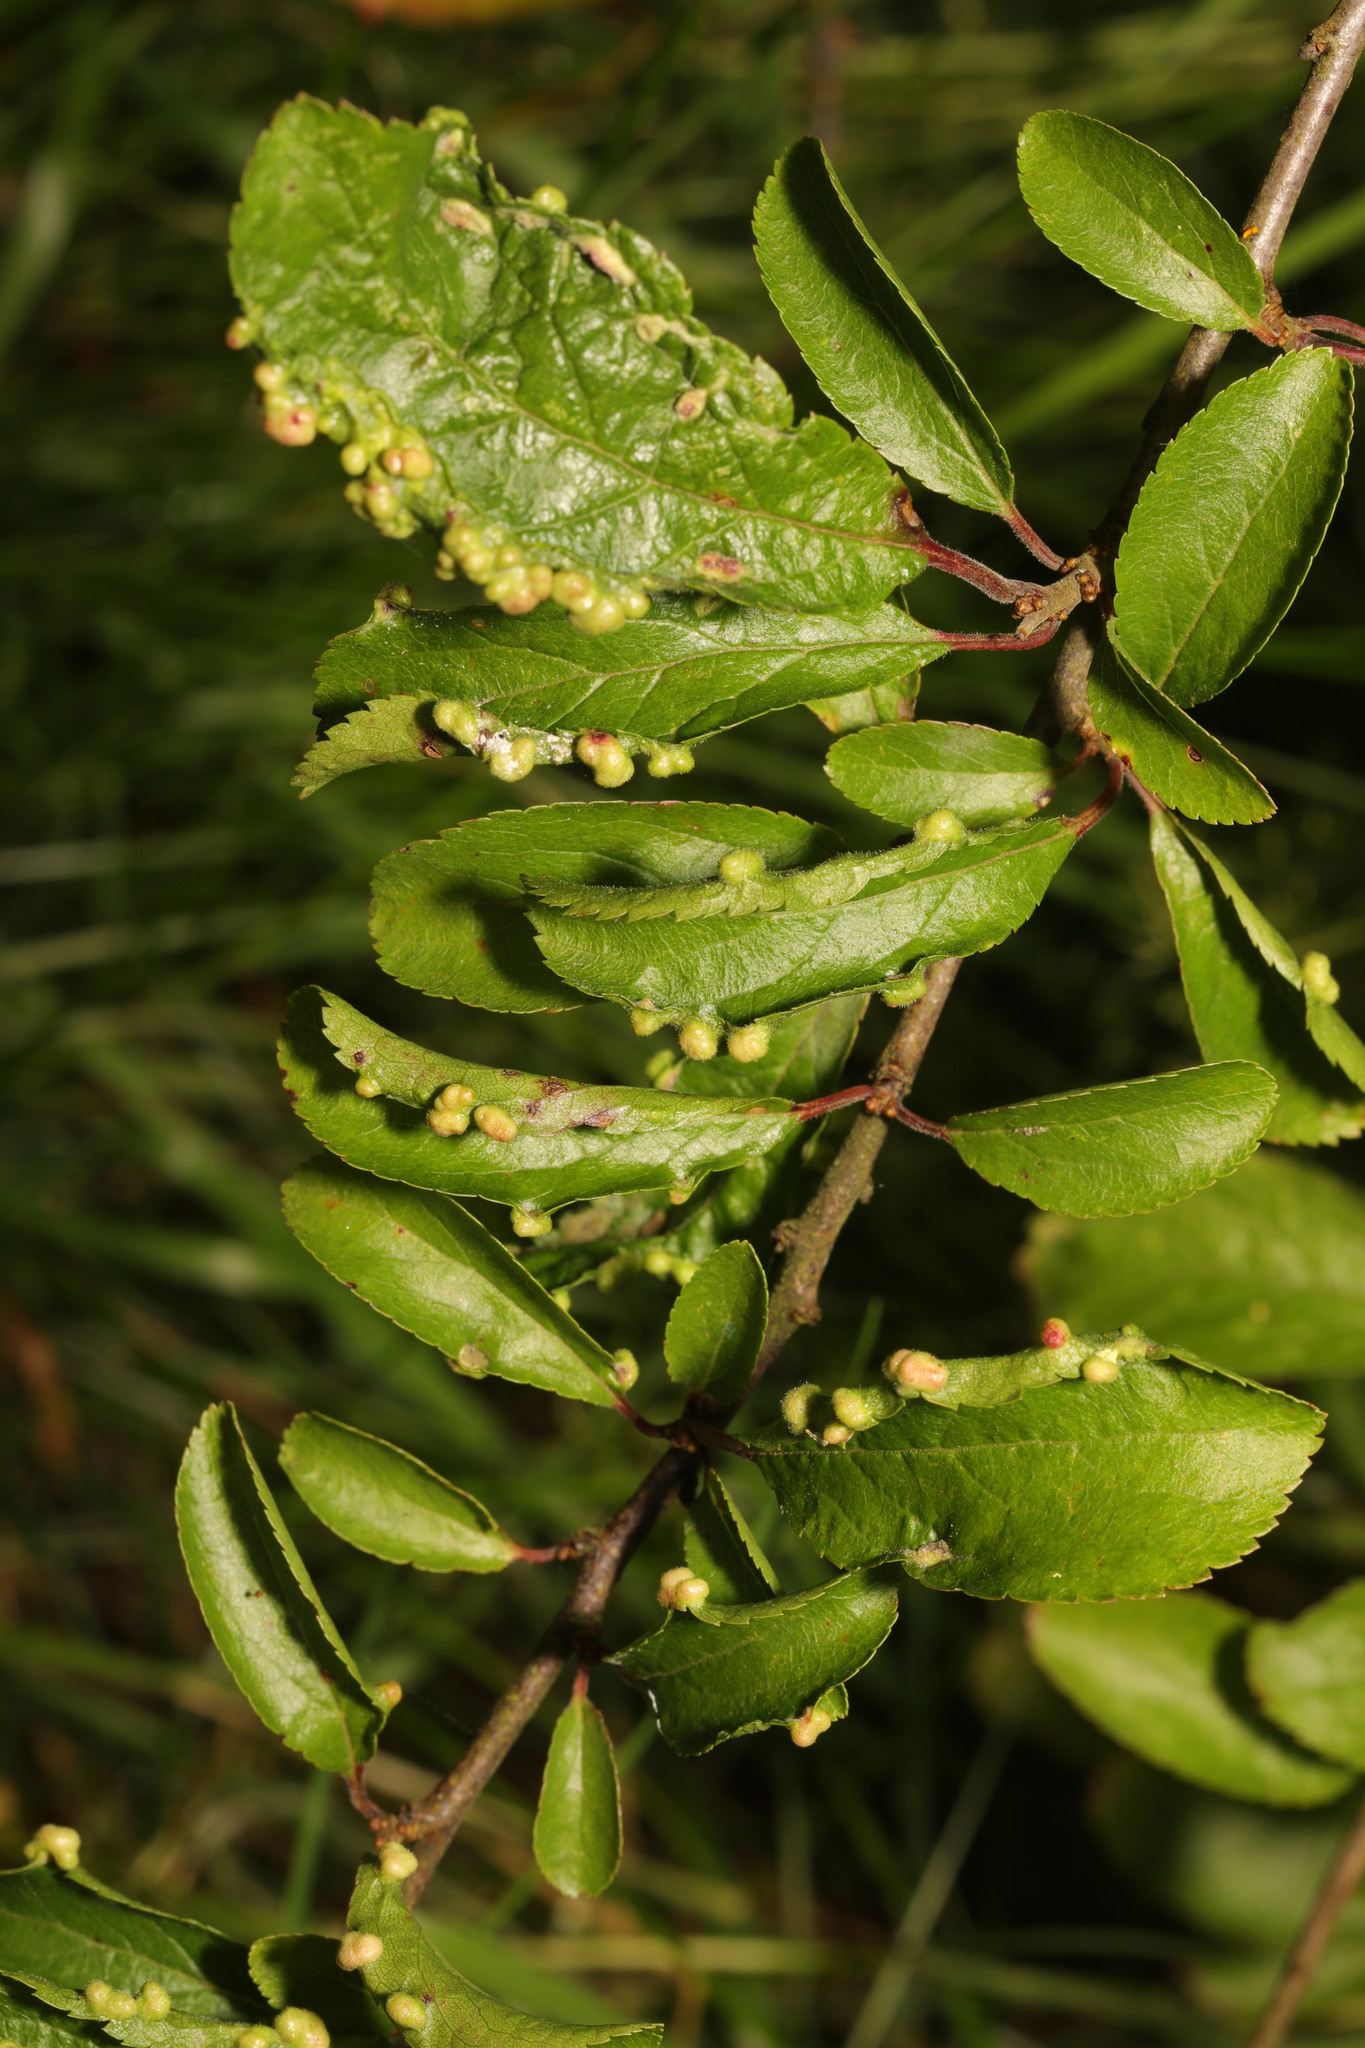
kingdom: Animalia
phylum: Arthropoda
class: Arachnida
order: Trombidiformes
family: Eriophyidae
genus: Eriophyes
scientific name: Eriophyes similis
